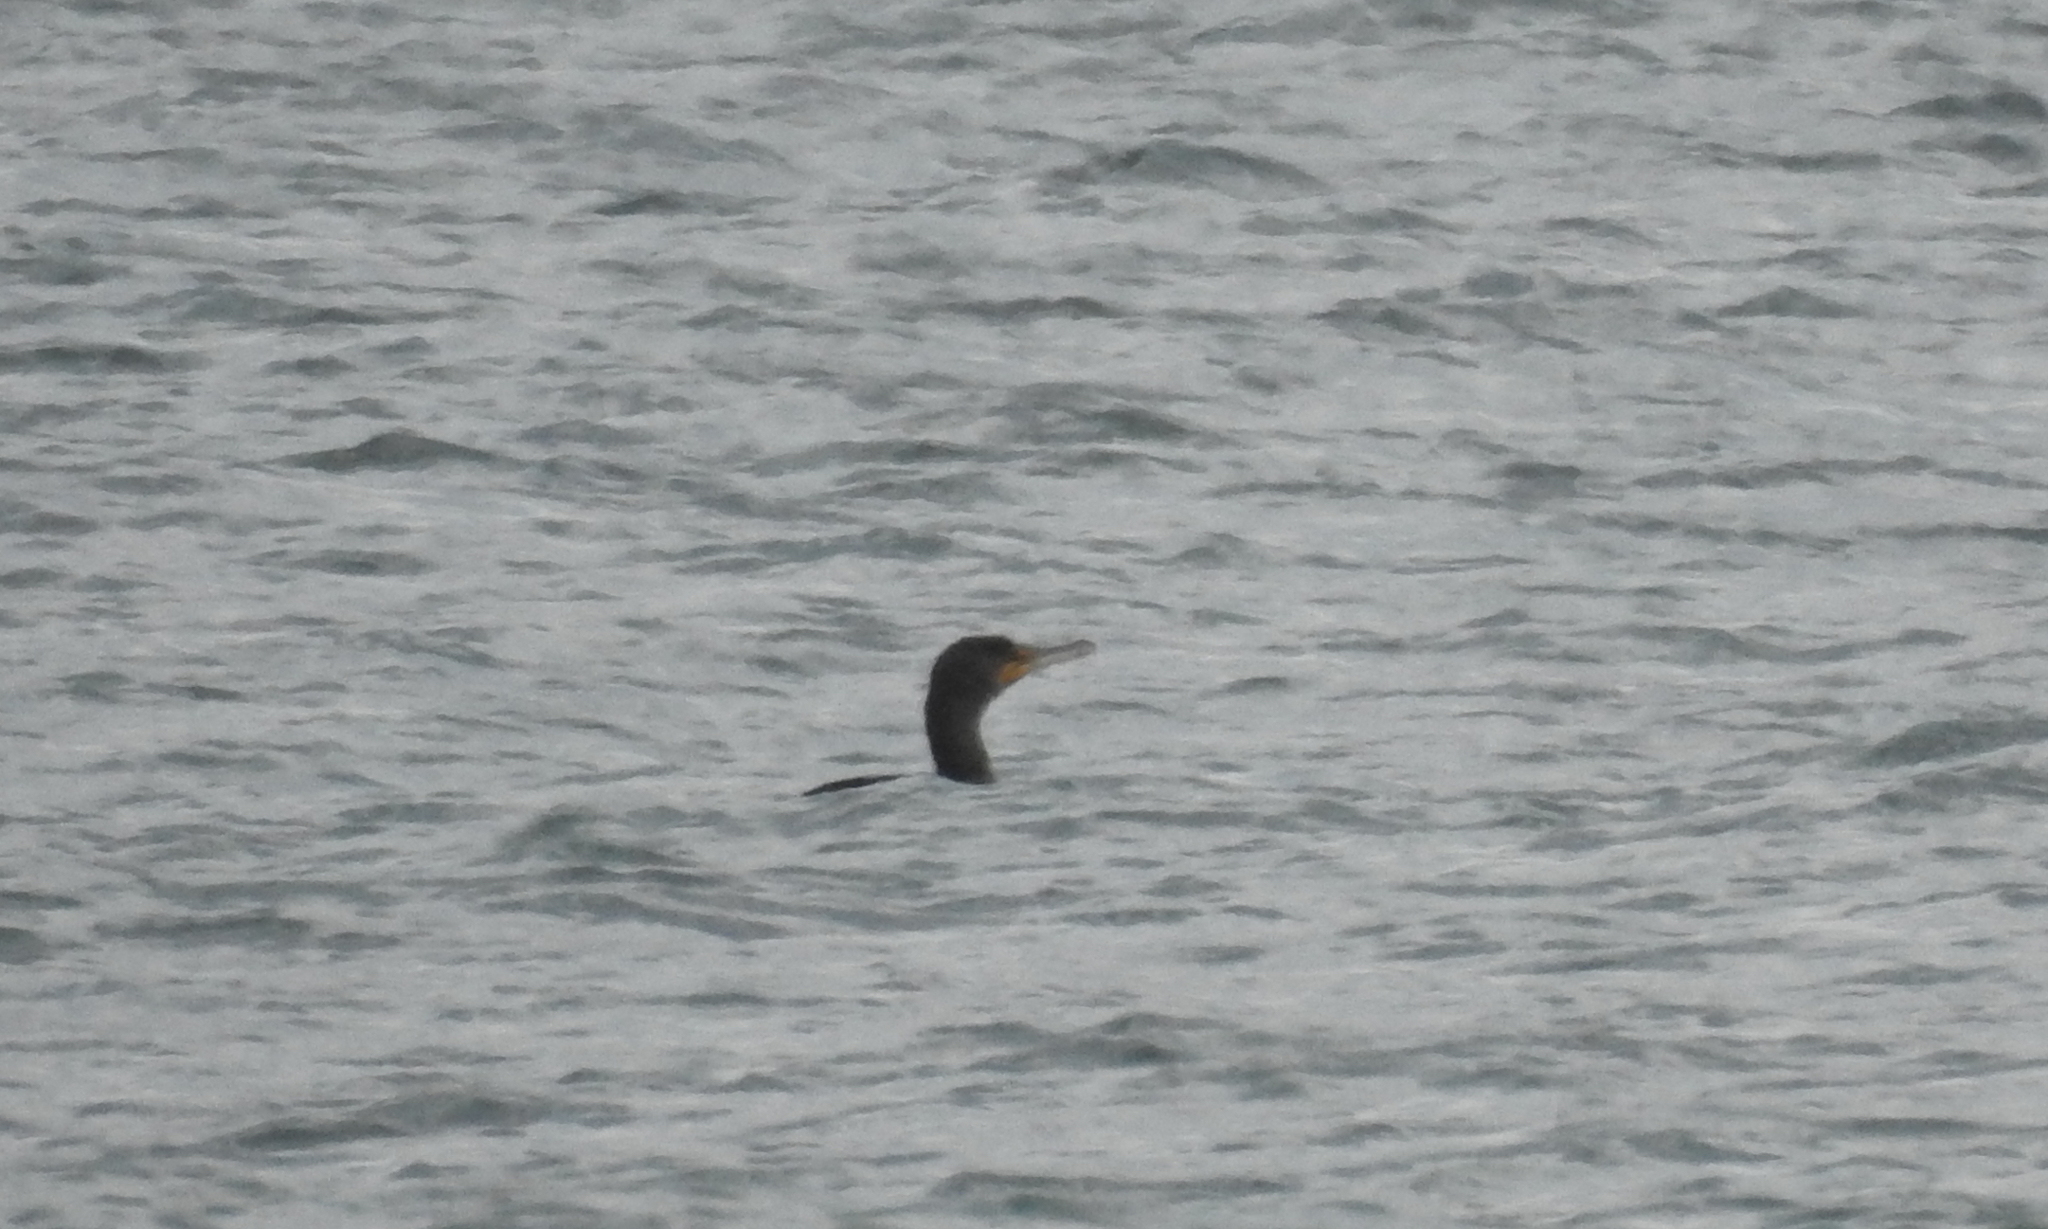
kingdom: Animalia
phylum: Chordata
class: Aves
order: Suliformes
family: Phalacrocoracidae
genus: Phalacrocorax
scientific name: Phalacrocorax auritus
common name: Double-crested cormorant
